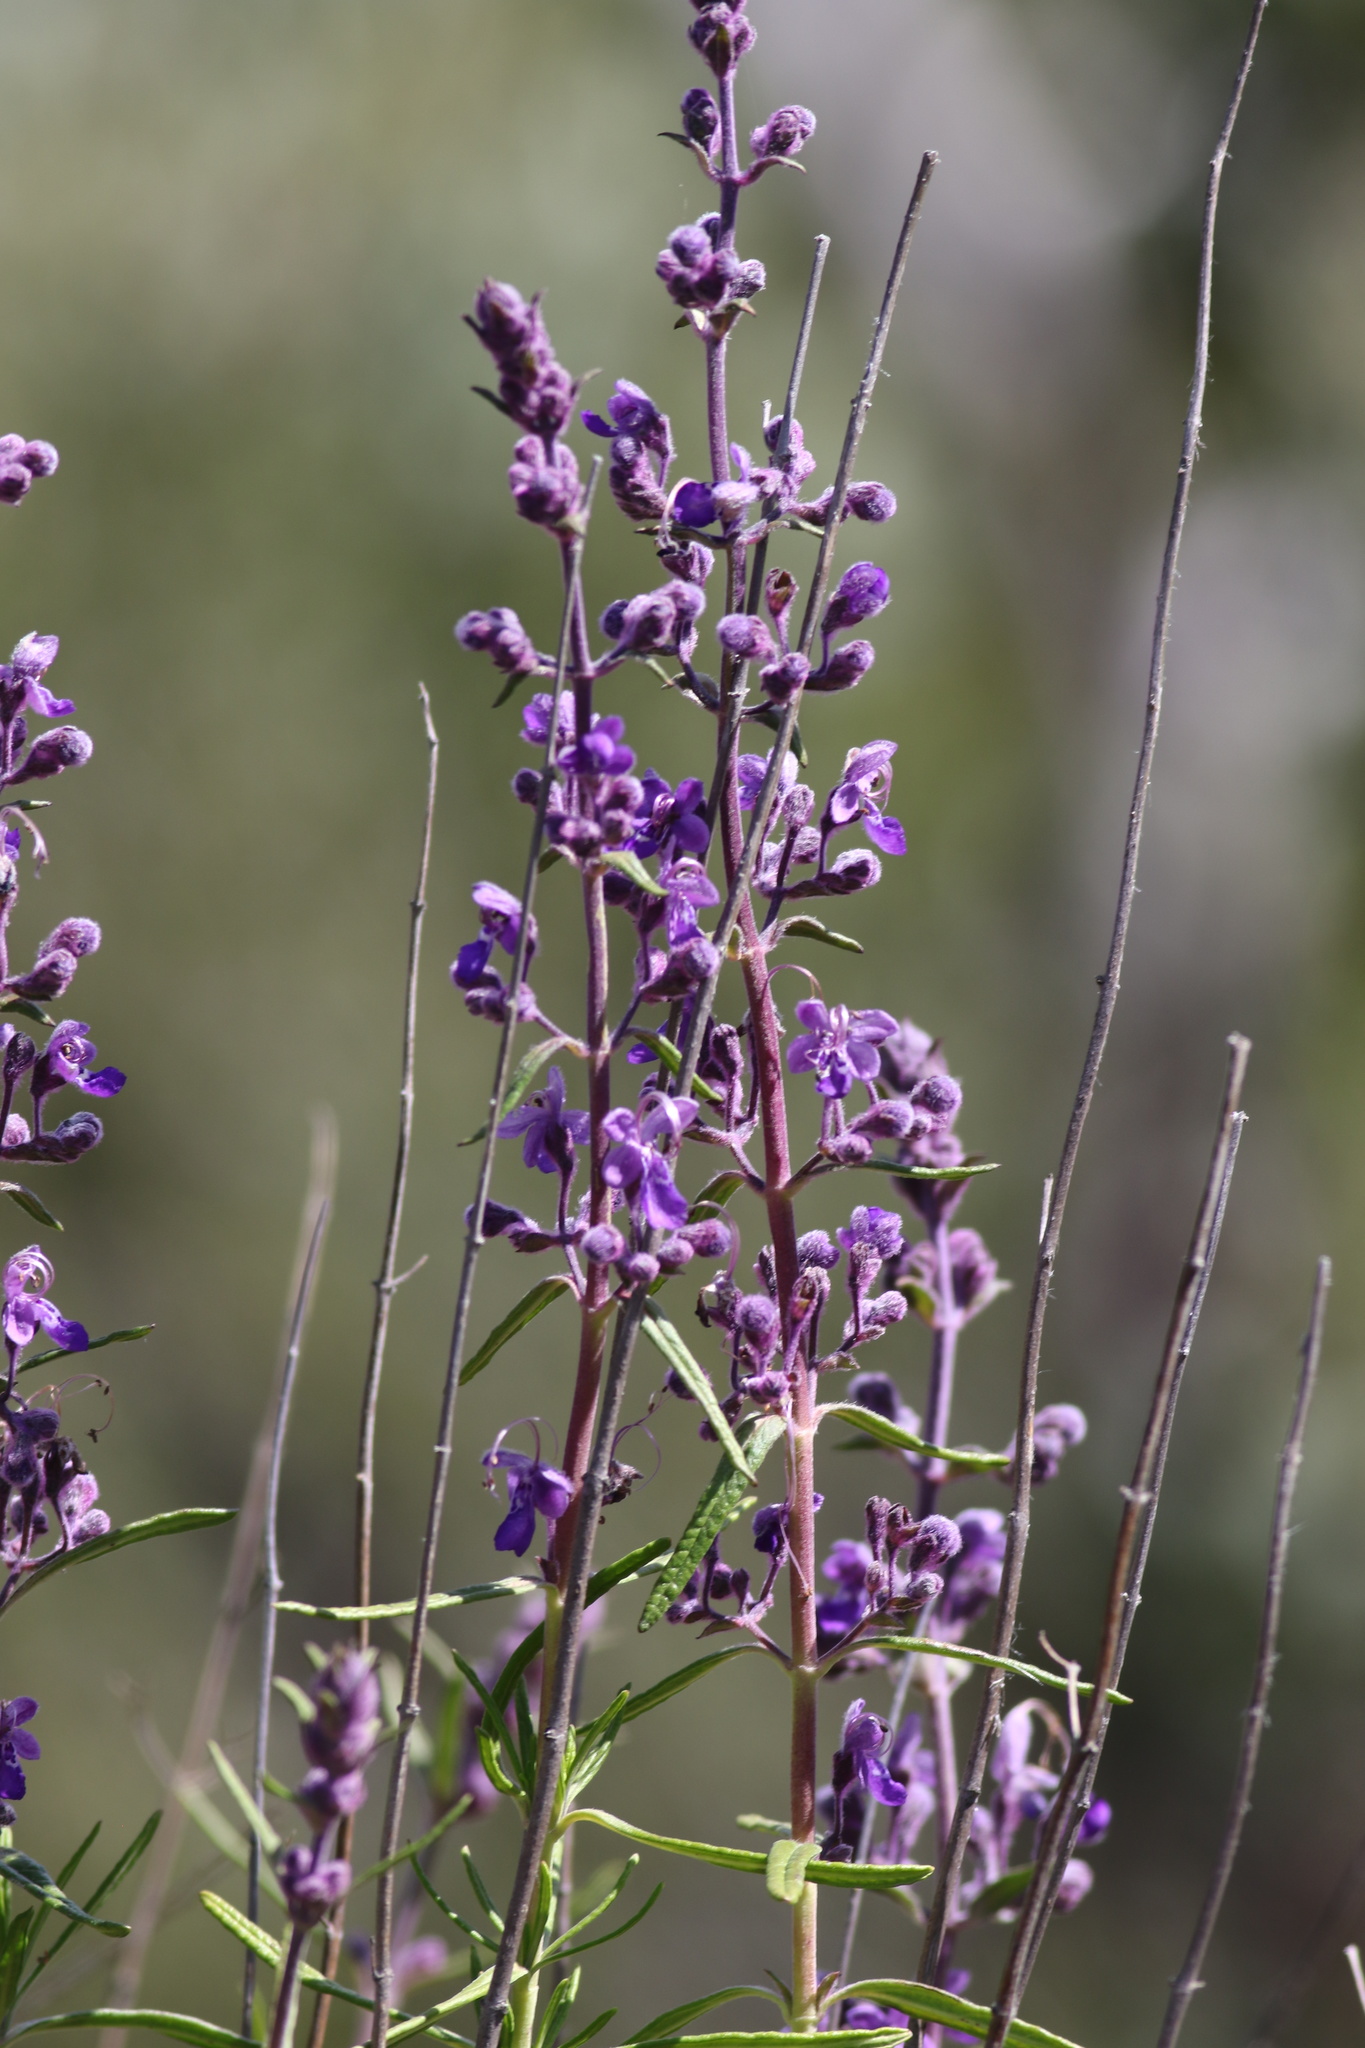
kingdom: Plantae
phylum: Tracheophyta
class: Magnoliopsida
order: Lamiales
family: Lamiaceae
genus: Trichostema
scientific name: Trichostema parishii
